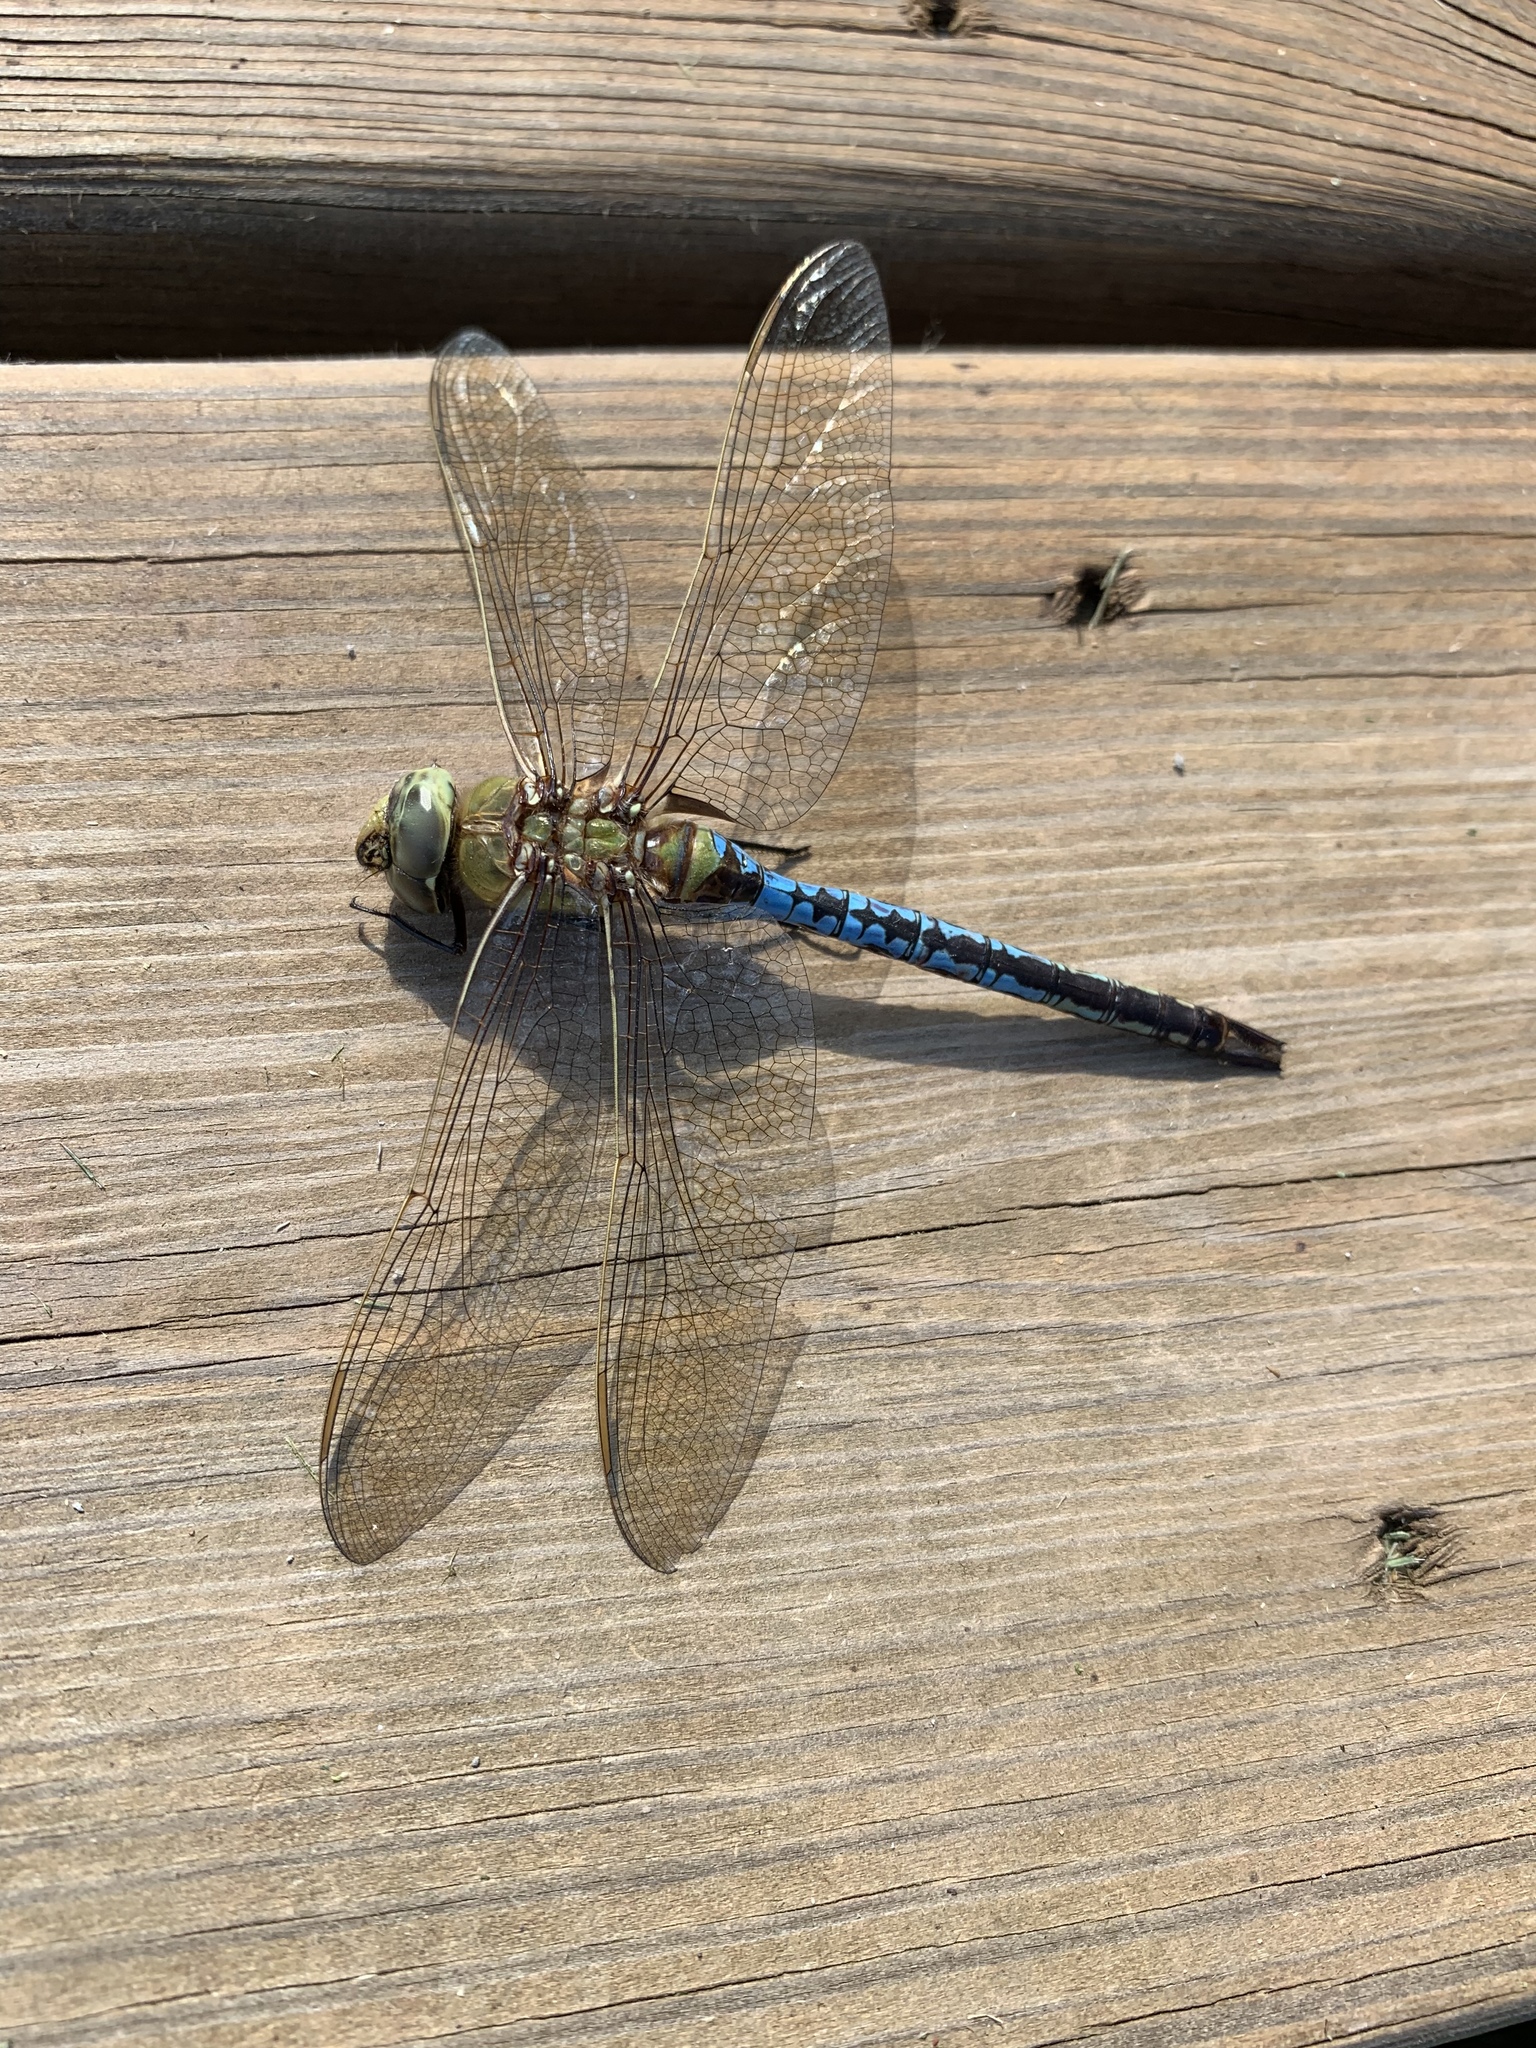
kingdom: Animalia
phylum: Arthropoda
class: Insecta
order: Odonata
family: Aeshnidae
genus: Anax
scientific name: Anax junius
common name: Common green darner
